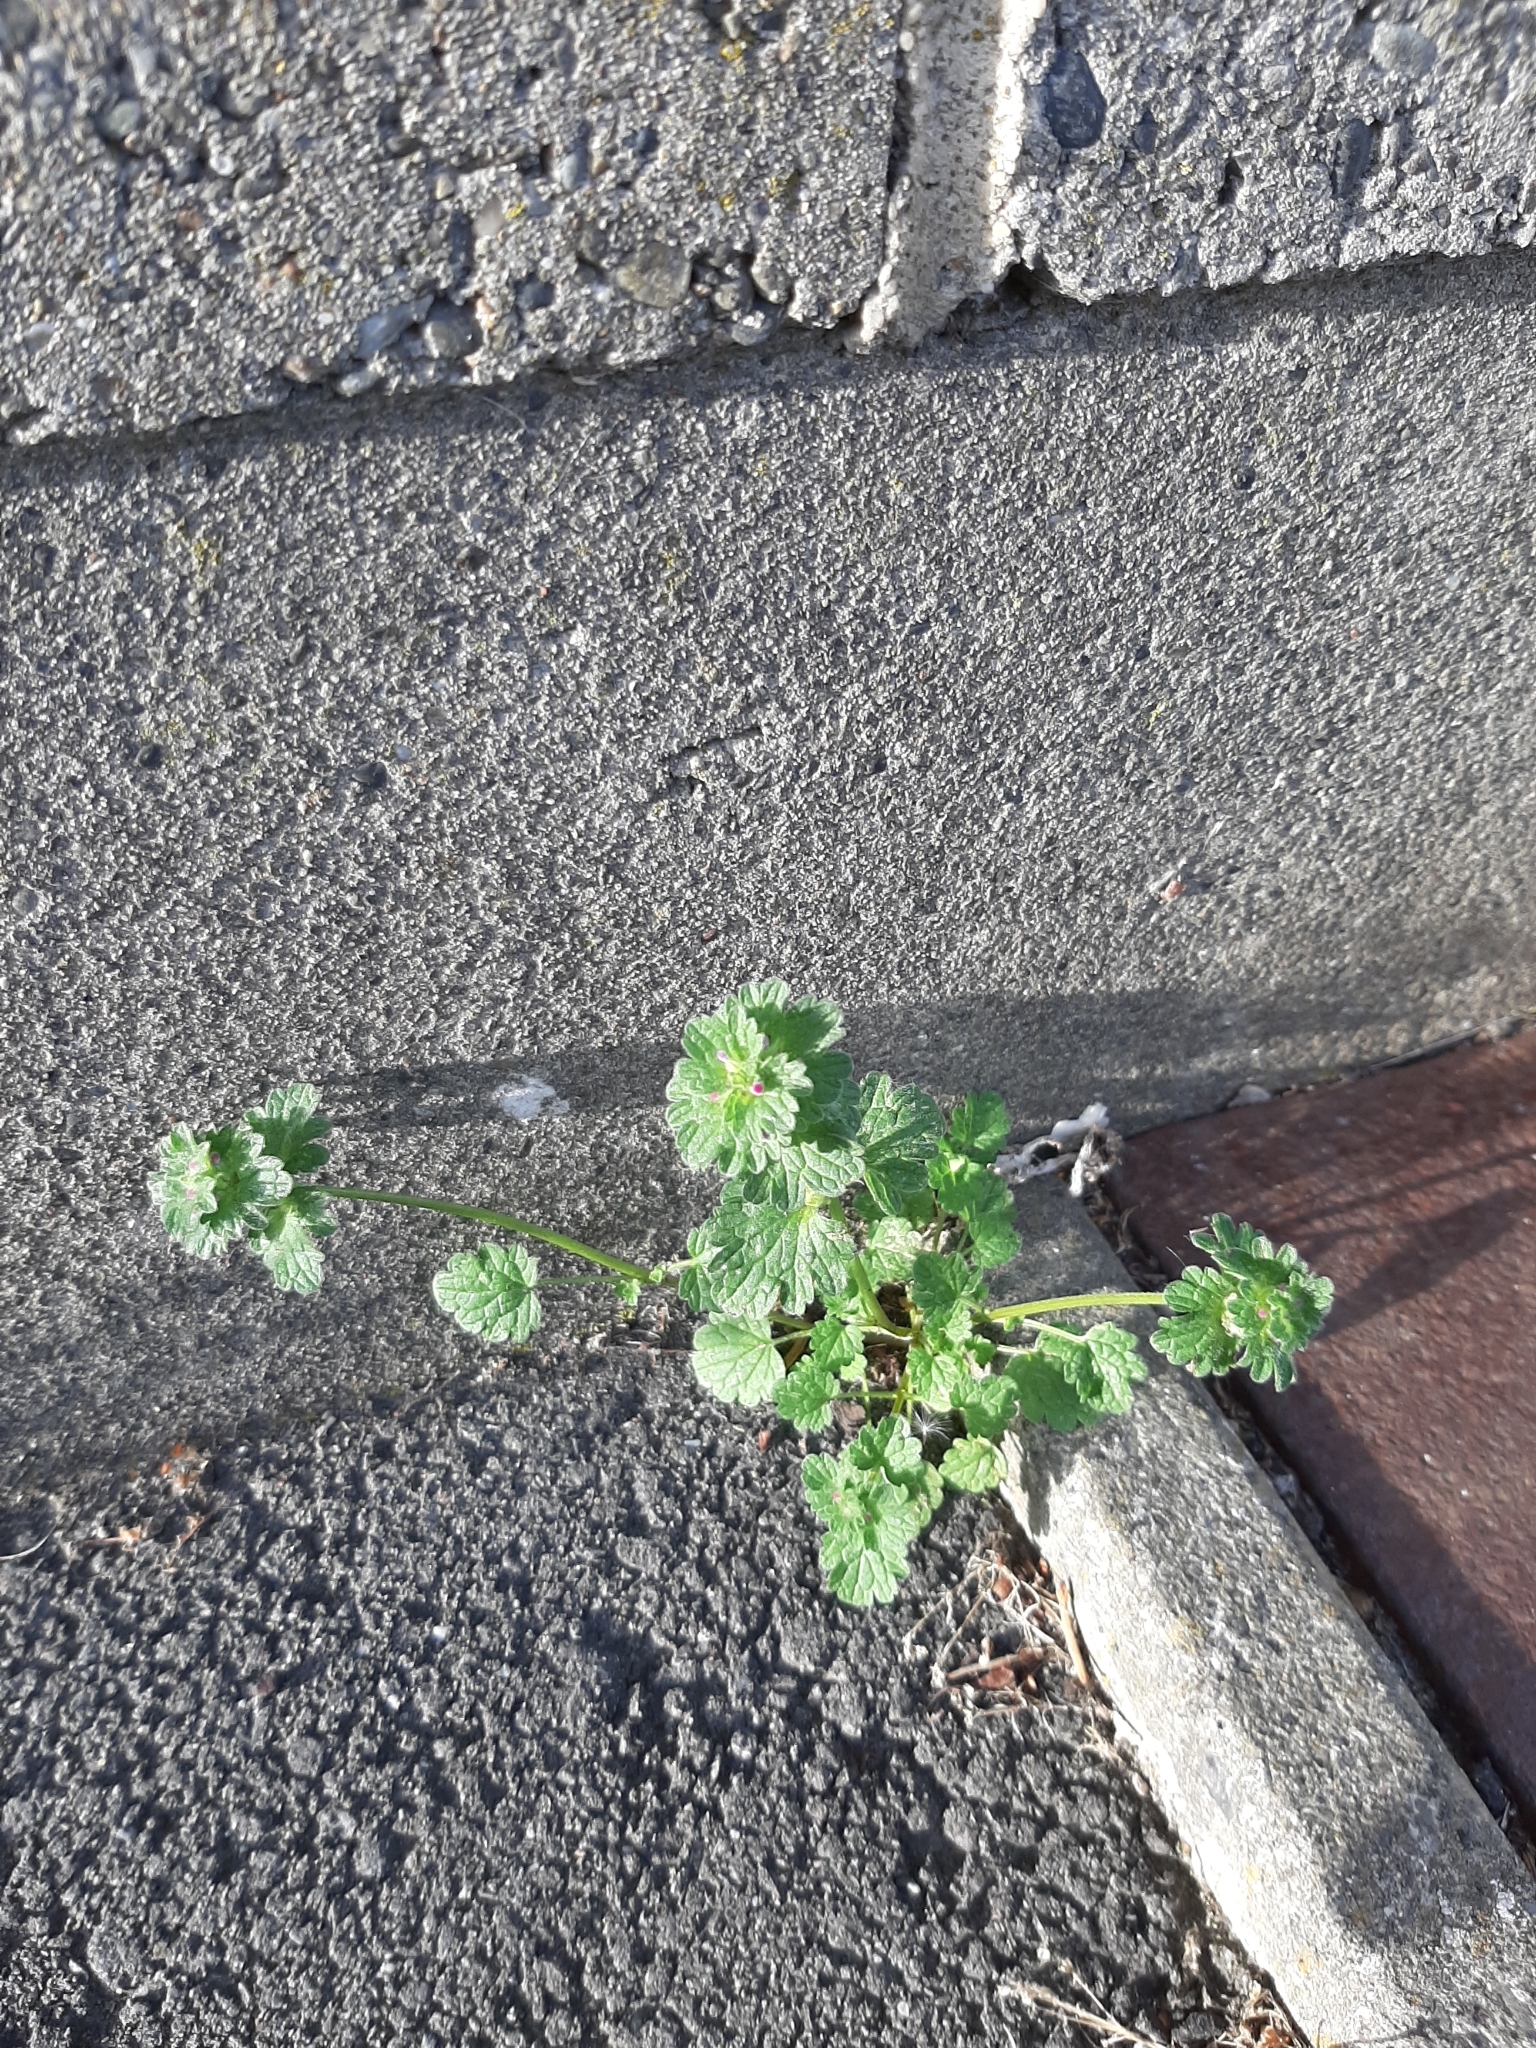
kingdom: Plantae
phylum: Tracheophyta
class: Magnoliopsida
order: Lamiales
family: Lamiaceae
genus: Lamium
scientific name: Lamium purpureum
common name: Red dead-nettle
